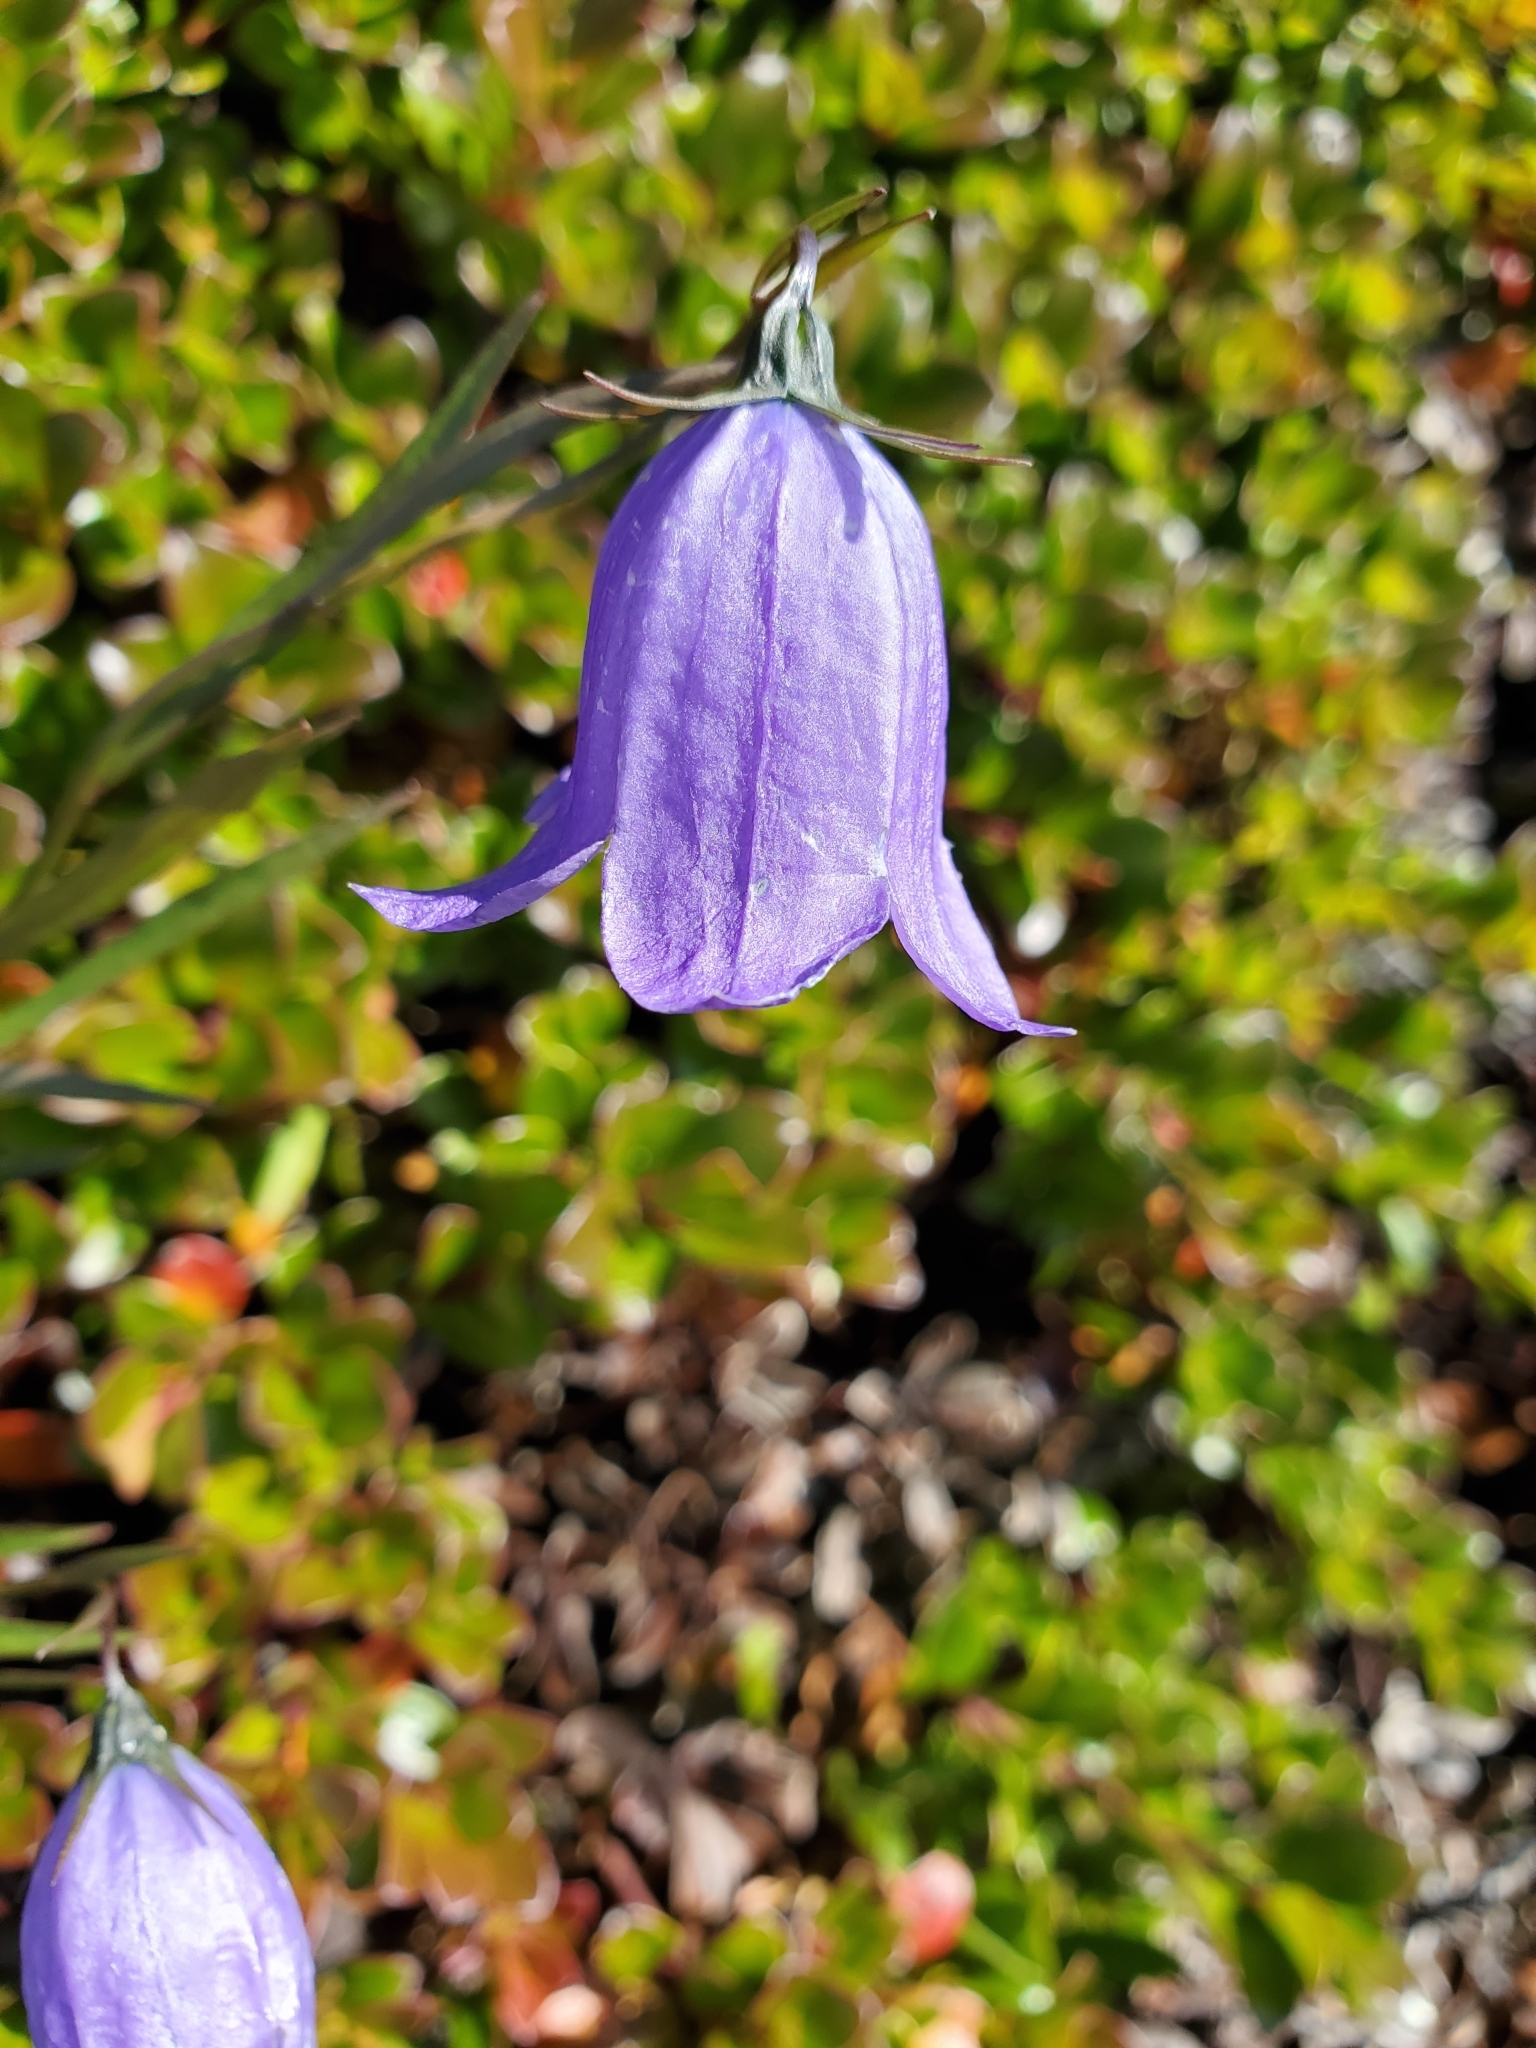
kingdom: Plantae
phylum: Tracheophyta
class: Magnoliopsida
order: Asterales
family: Campanulaceae
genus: Campanula
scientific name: Campanula alaskana
